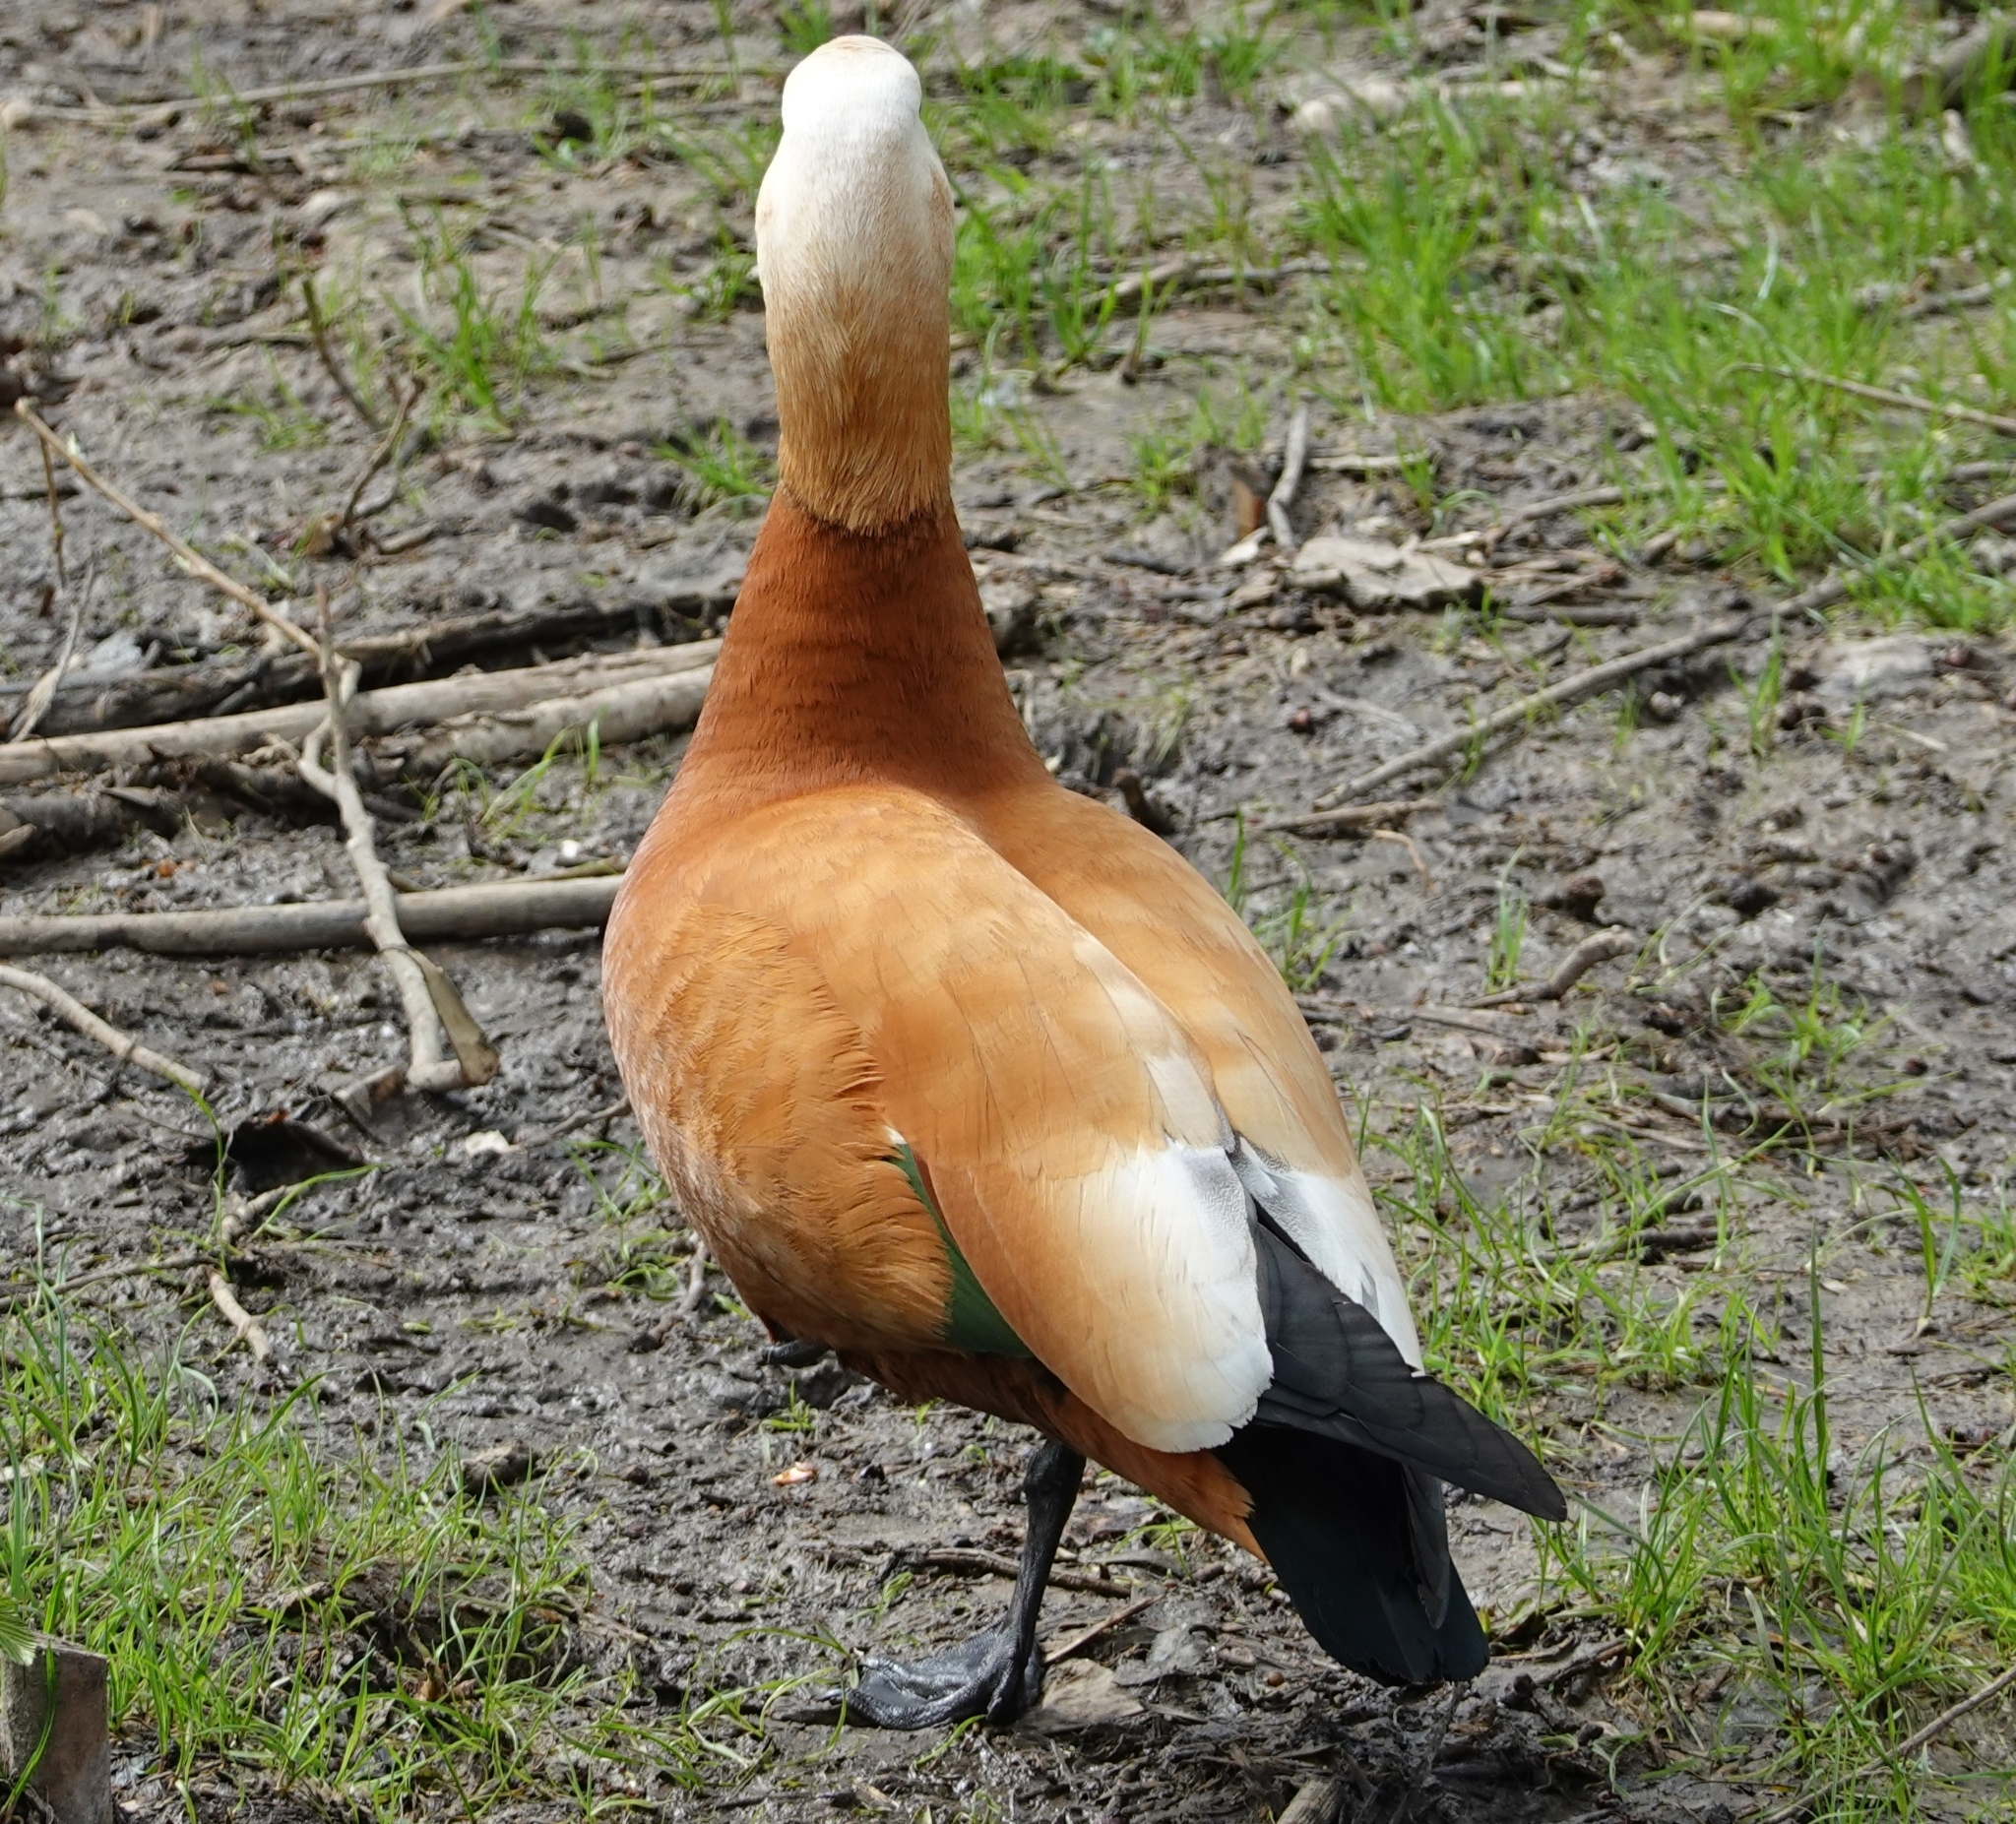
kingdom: Animalia
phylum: Chordata
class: Aves
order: Anseriformes
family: Anatidae
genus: Tadorna
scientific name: Tadorna ferruginea
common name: Ruddy shelduck
